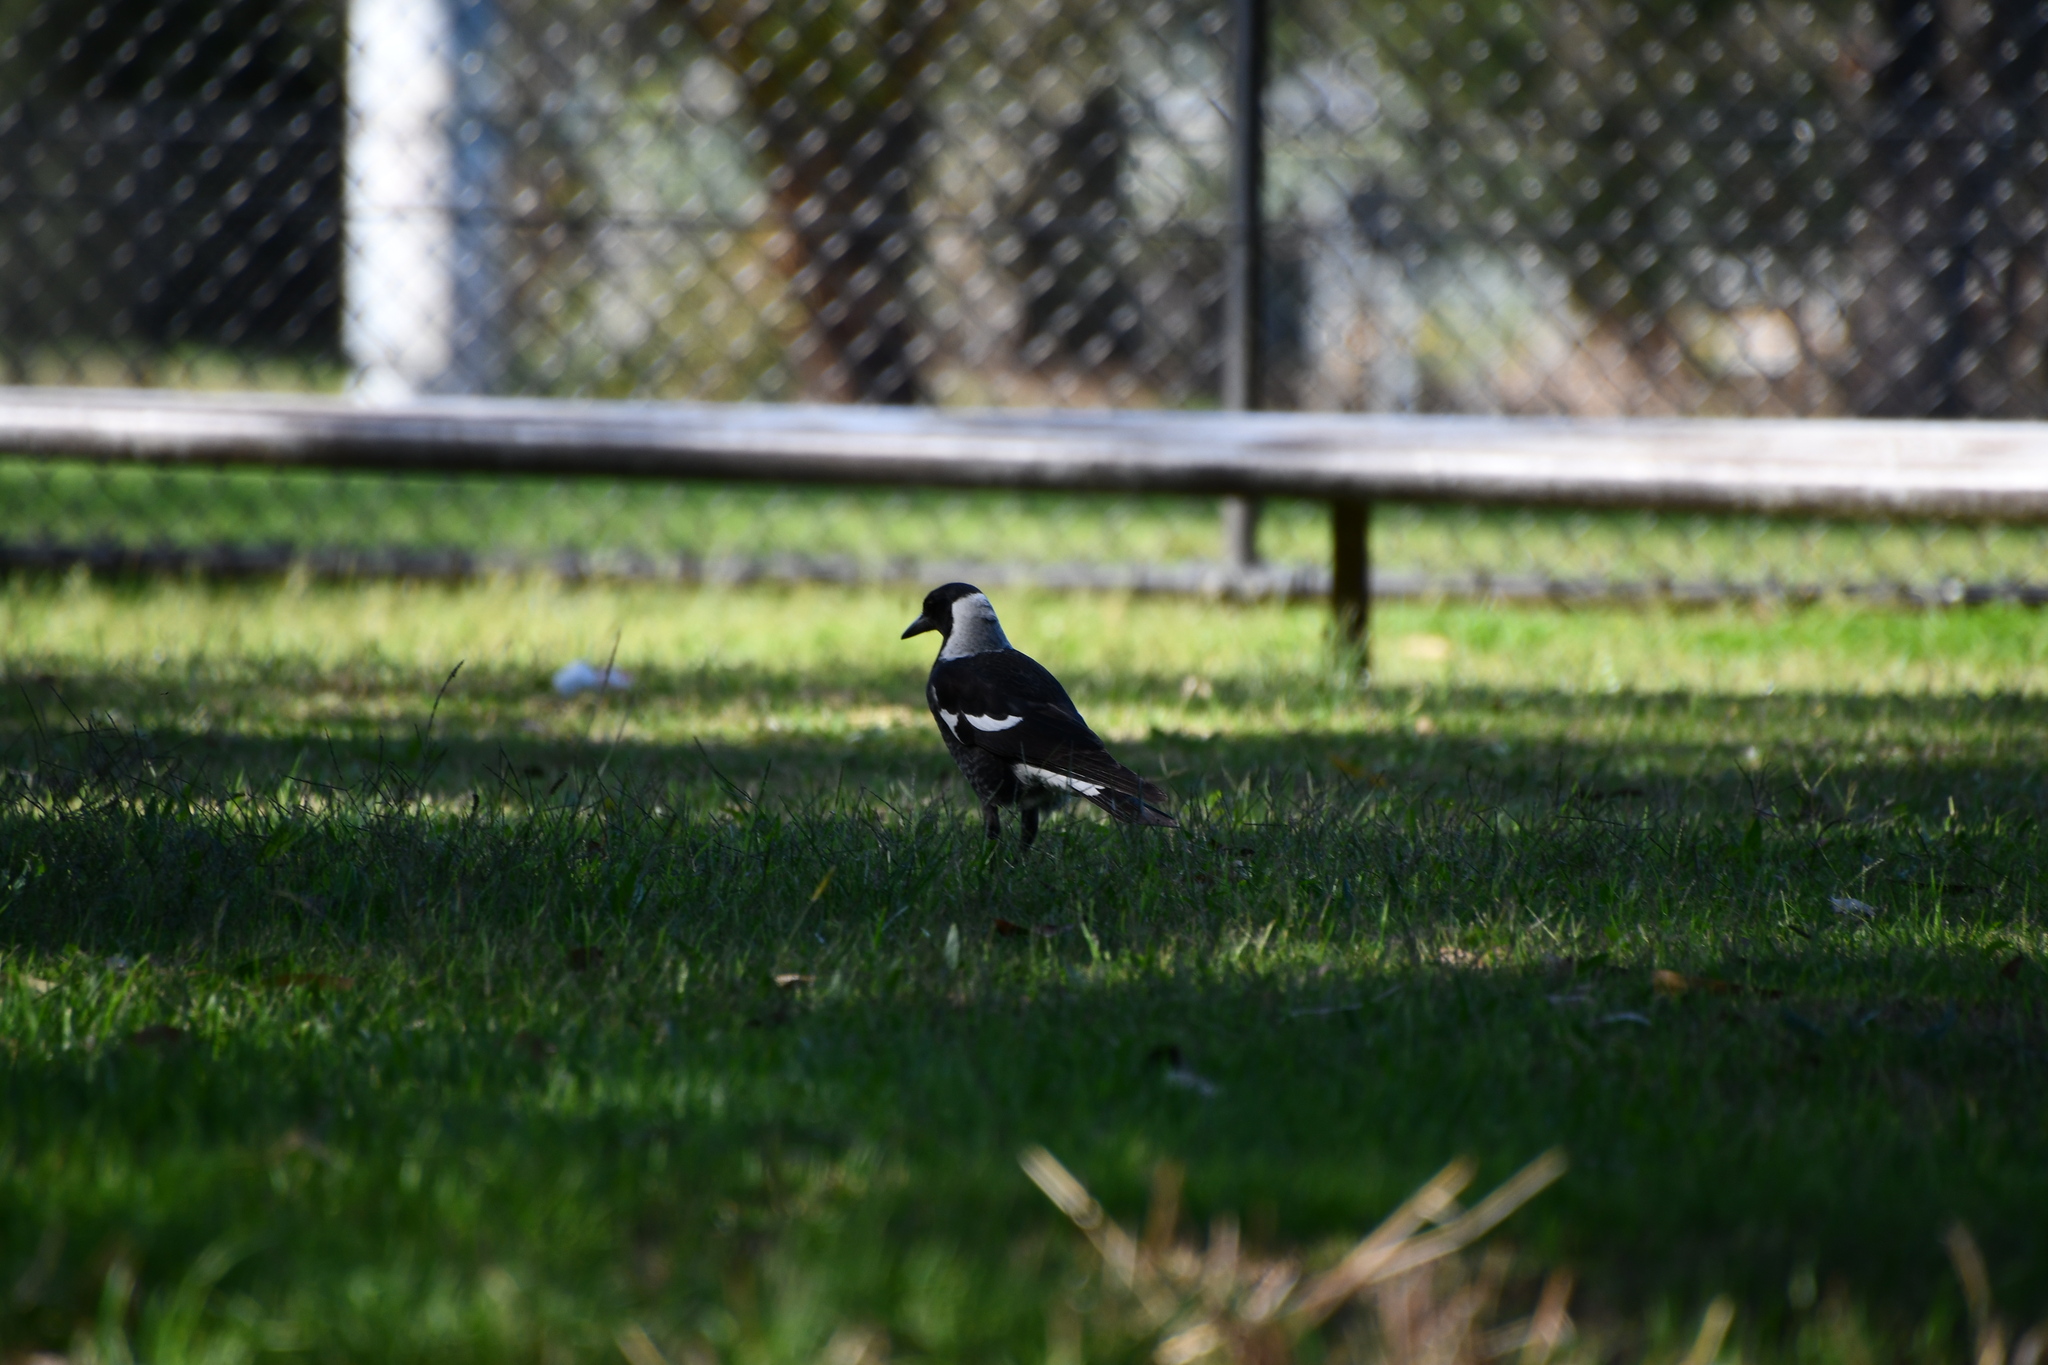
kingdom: Animalia
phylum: Chordata
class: Aves
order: Passeriformes
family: Cracticidae
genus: Gymnorhina
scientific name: Gymnorhina tibicen
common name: Australian magpie
